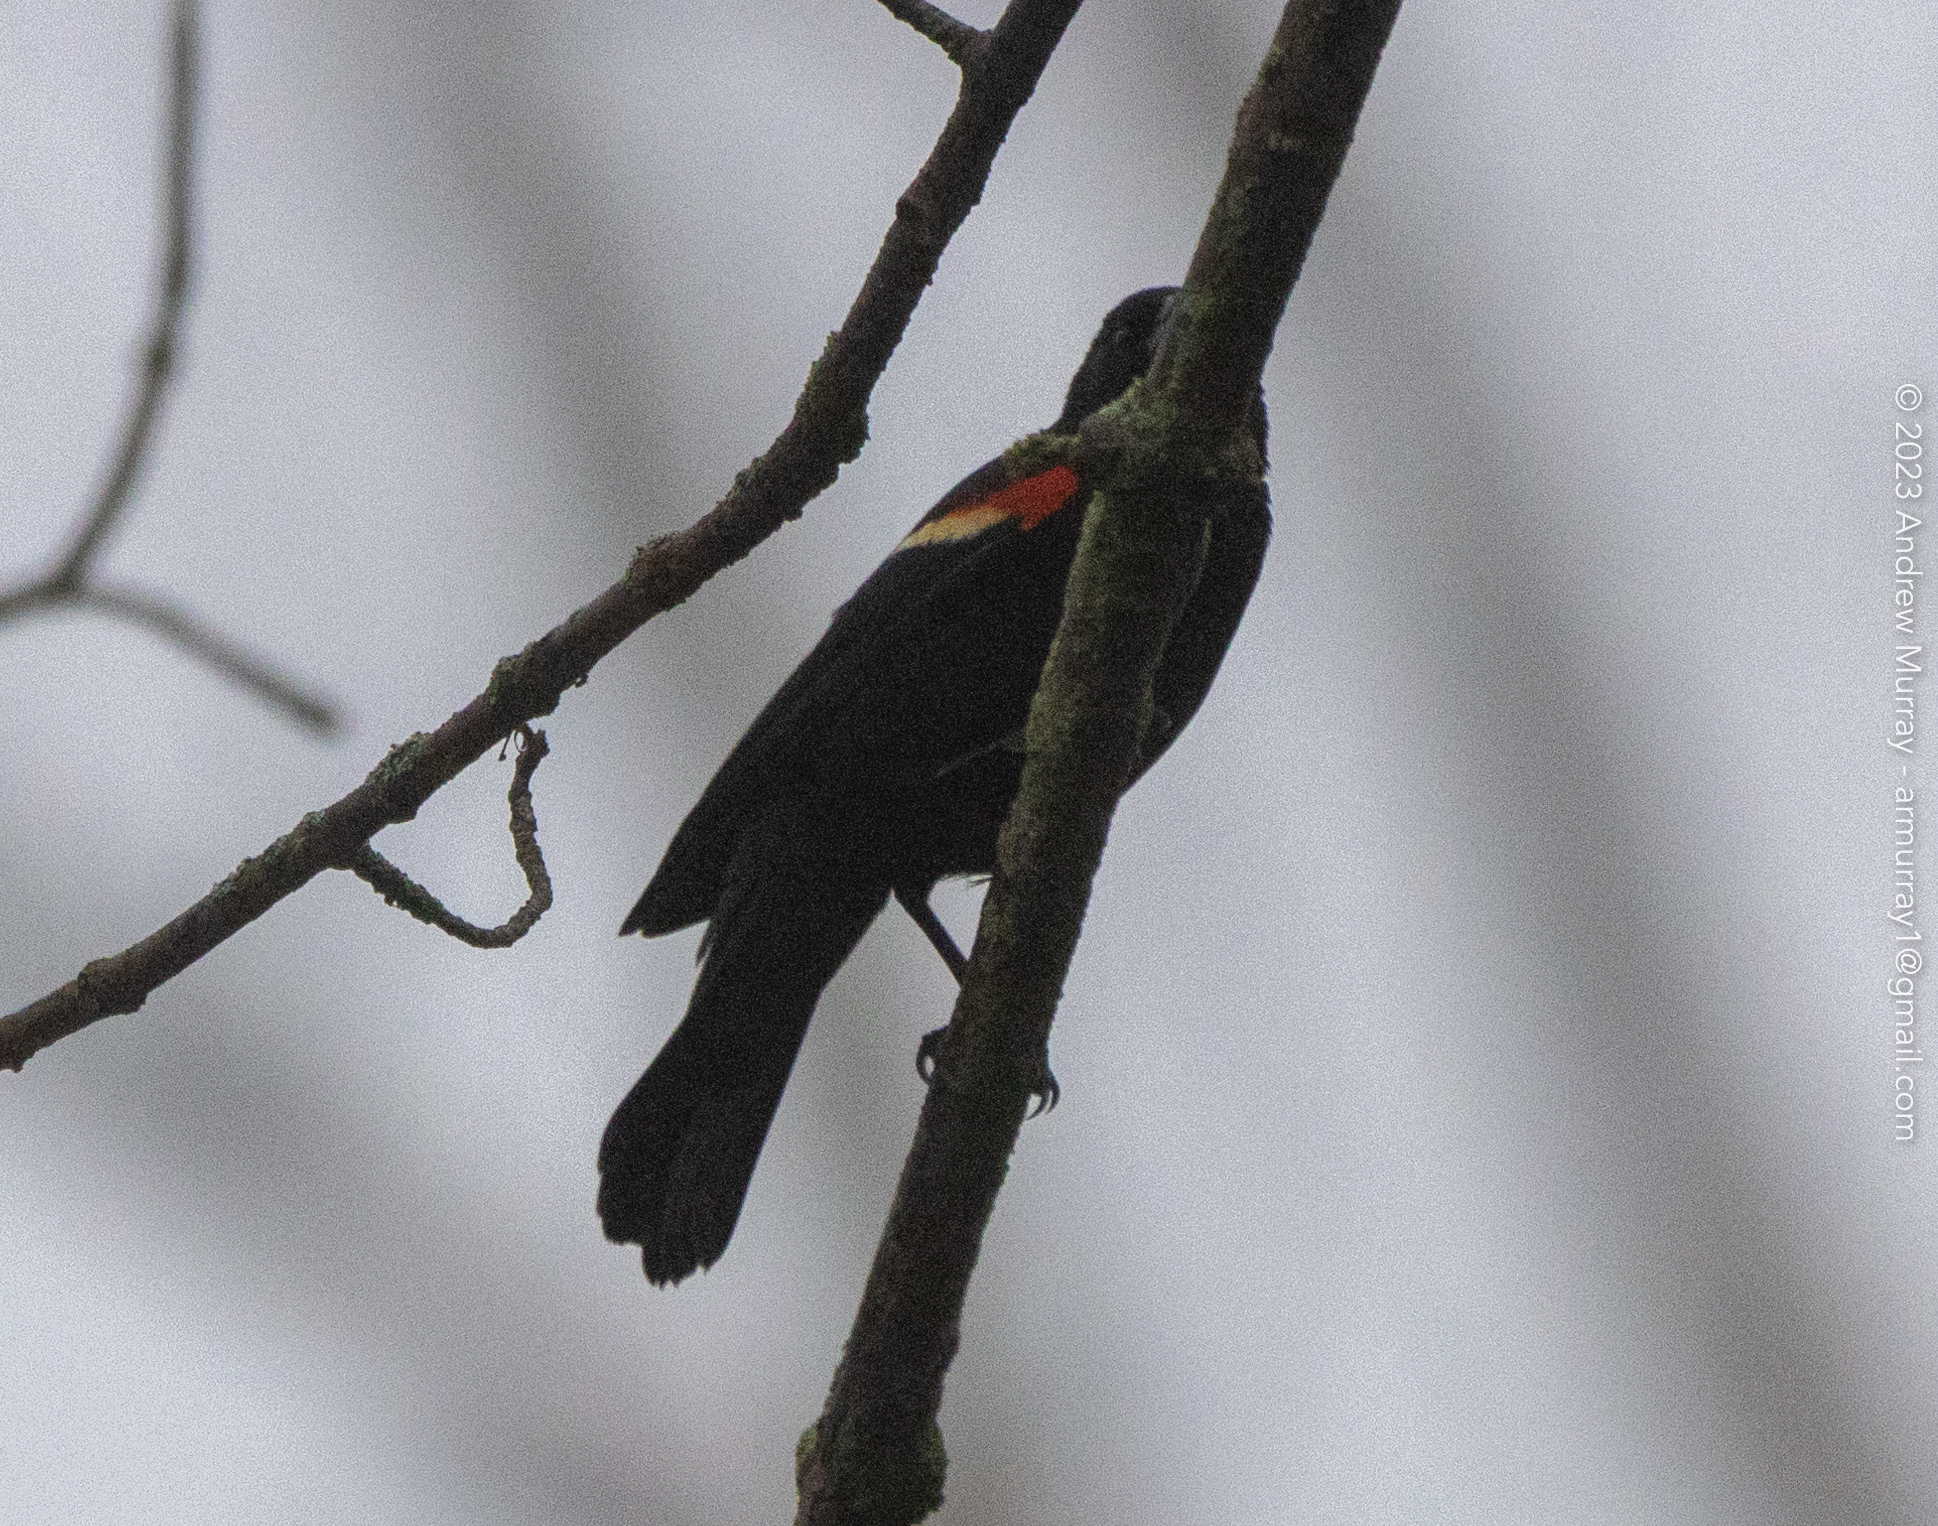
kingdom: Animalia
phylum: Chordata
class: Aves
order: Passeriformes
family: Icteridae
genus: Agelaius
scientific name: Agelaius phoeniceus
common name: Red-winged blackbird
